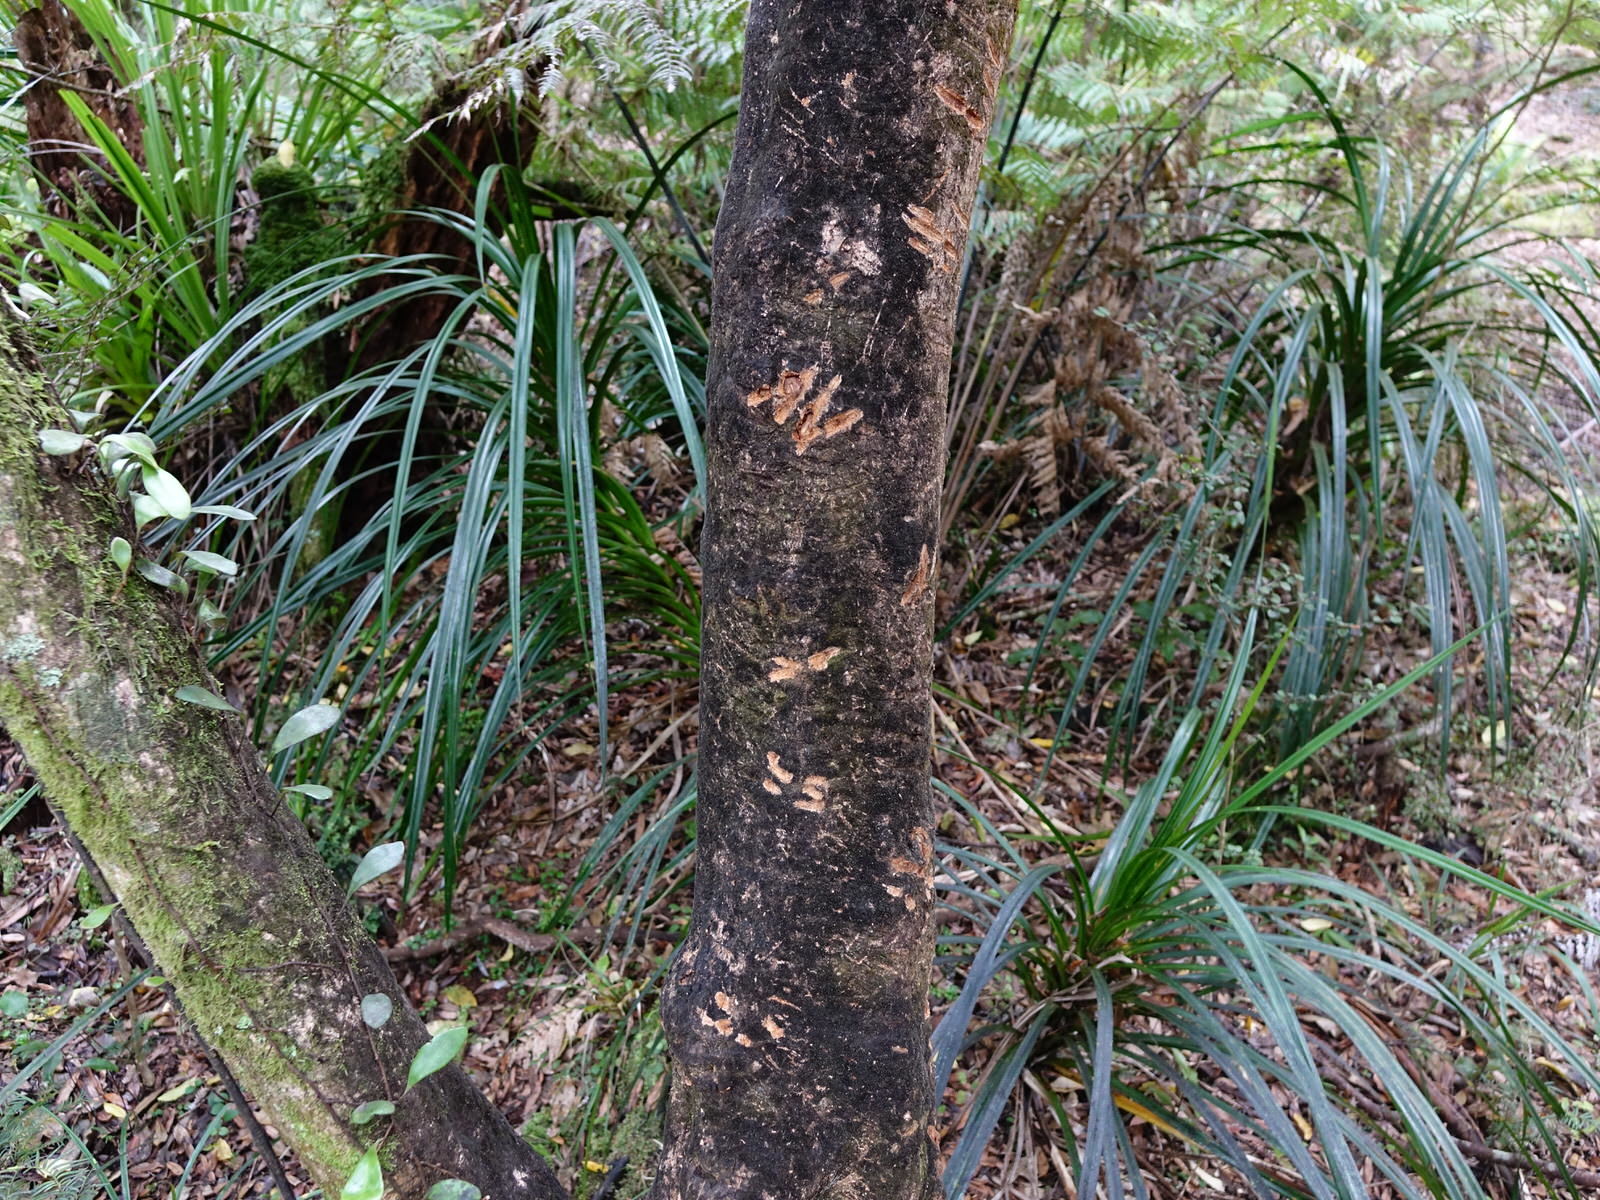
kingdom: Animalia
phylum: Chordata
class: Mammalia
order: Diprotodontia
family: Phalangeridae
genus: Trichosurus
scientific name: Trichosurus vulpecula
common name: Common brushtail
